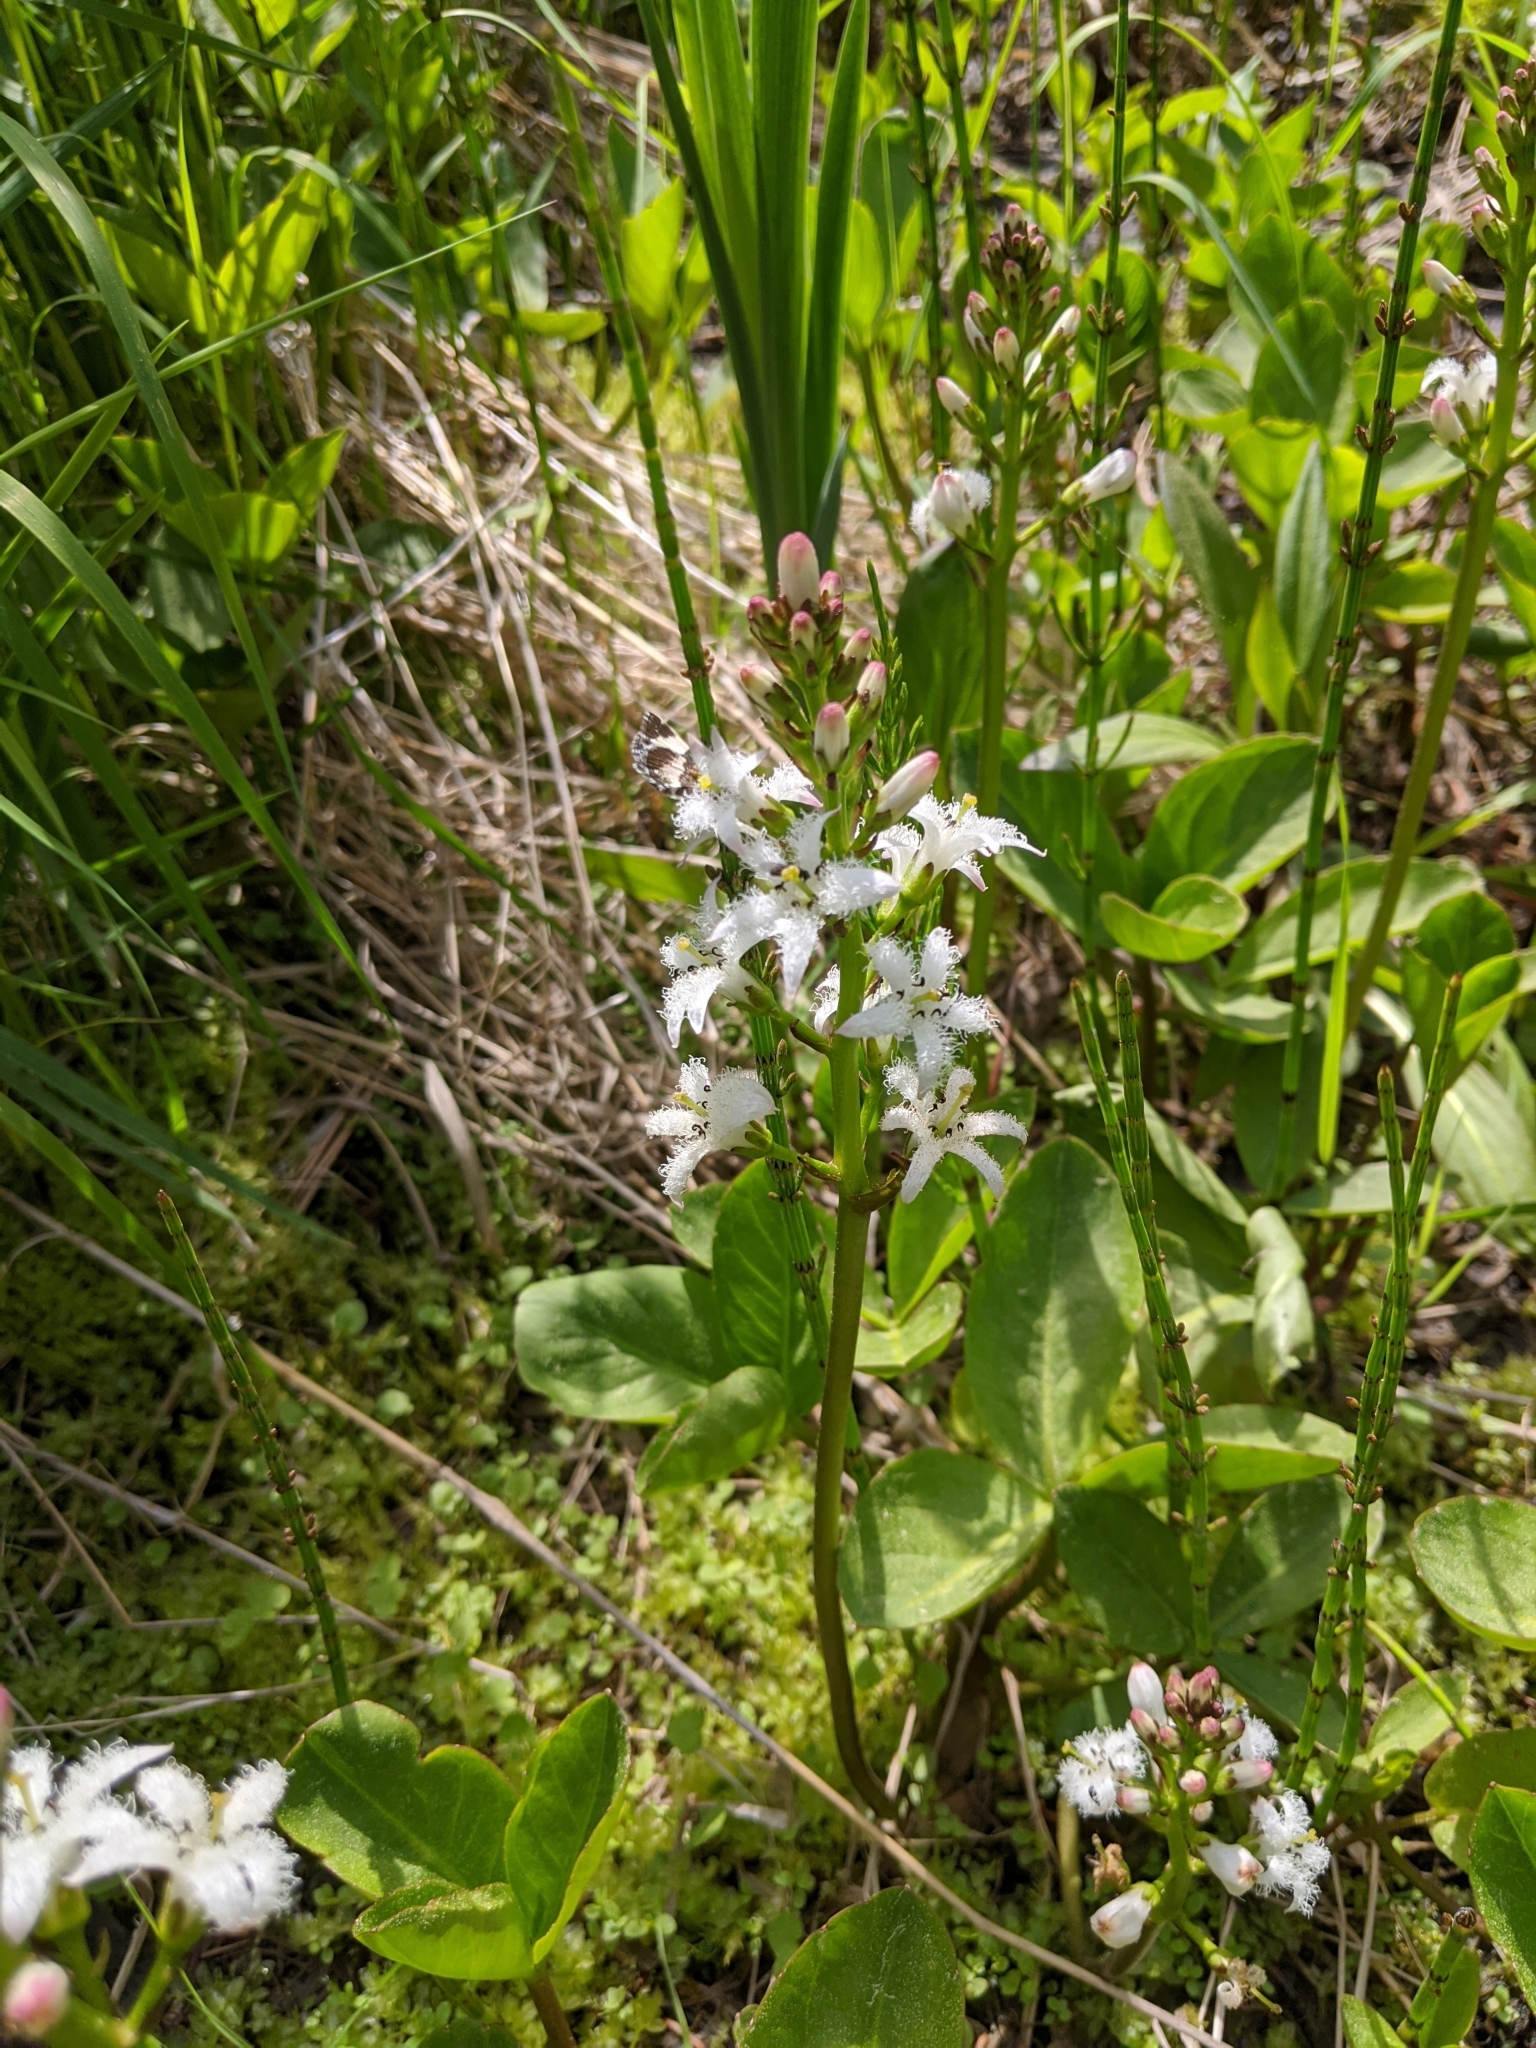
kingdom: Plantae
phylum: Tracheophyta
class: Magnoliopsida
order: Asterales
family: Menyanthaceae
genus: Menyanthes
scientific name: Menyanthes trifoliata
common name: Bogbean
